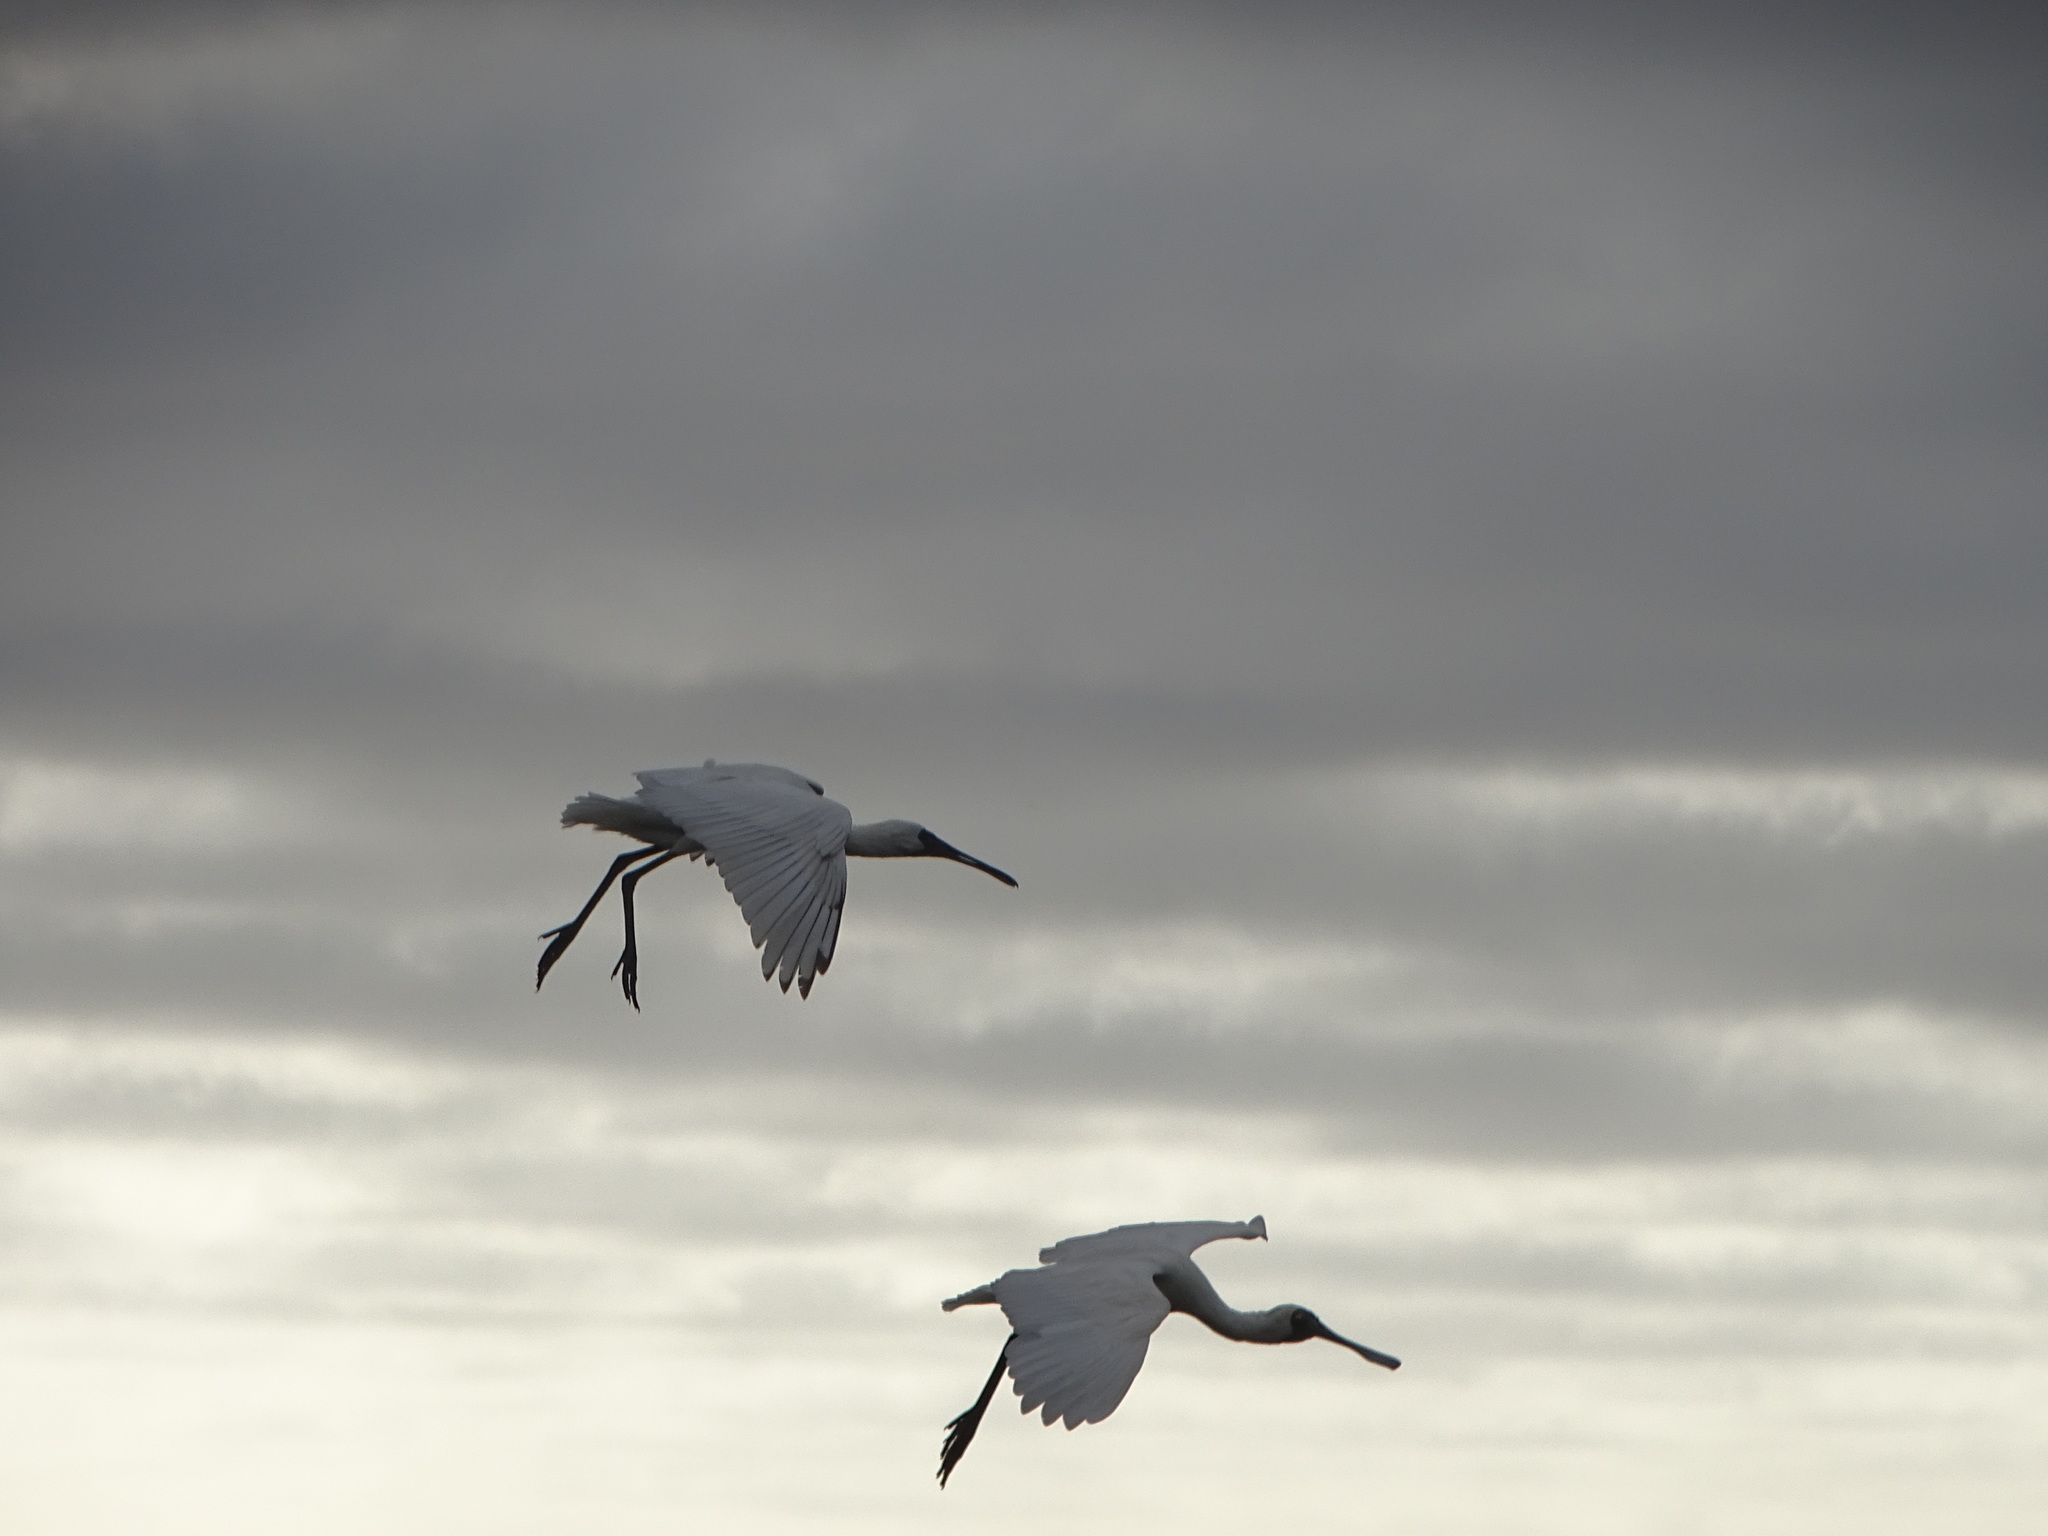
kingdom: Animalia
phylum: Chordata
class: Aves
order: Pelecaniformes
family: Threskiornithidae
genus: Platalea
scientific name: Platalea regia
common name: Royal spoonbill
